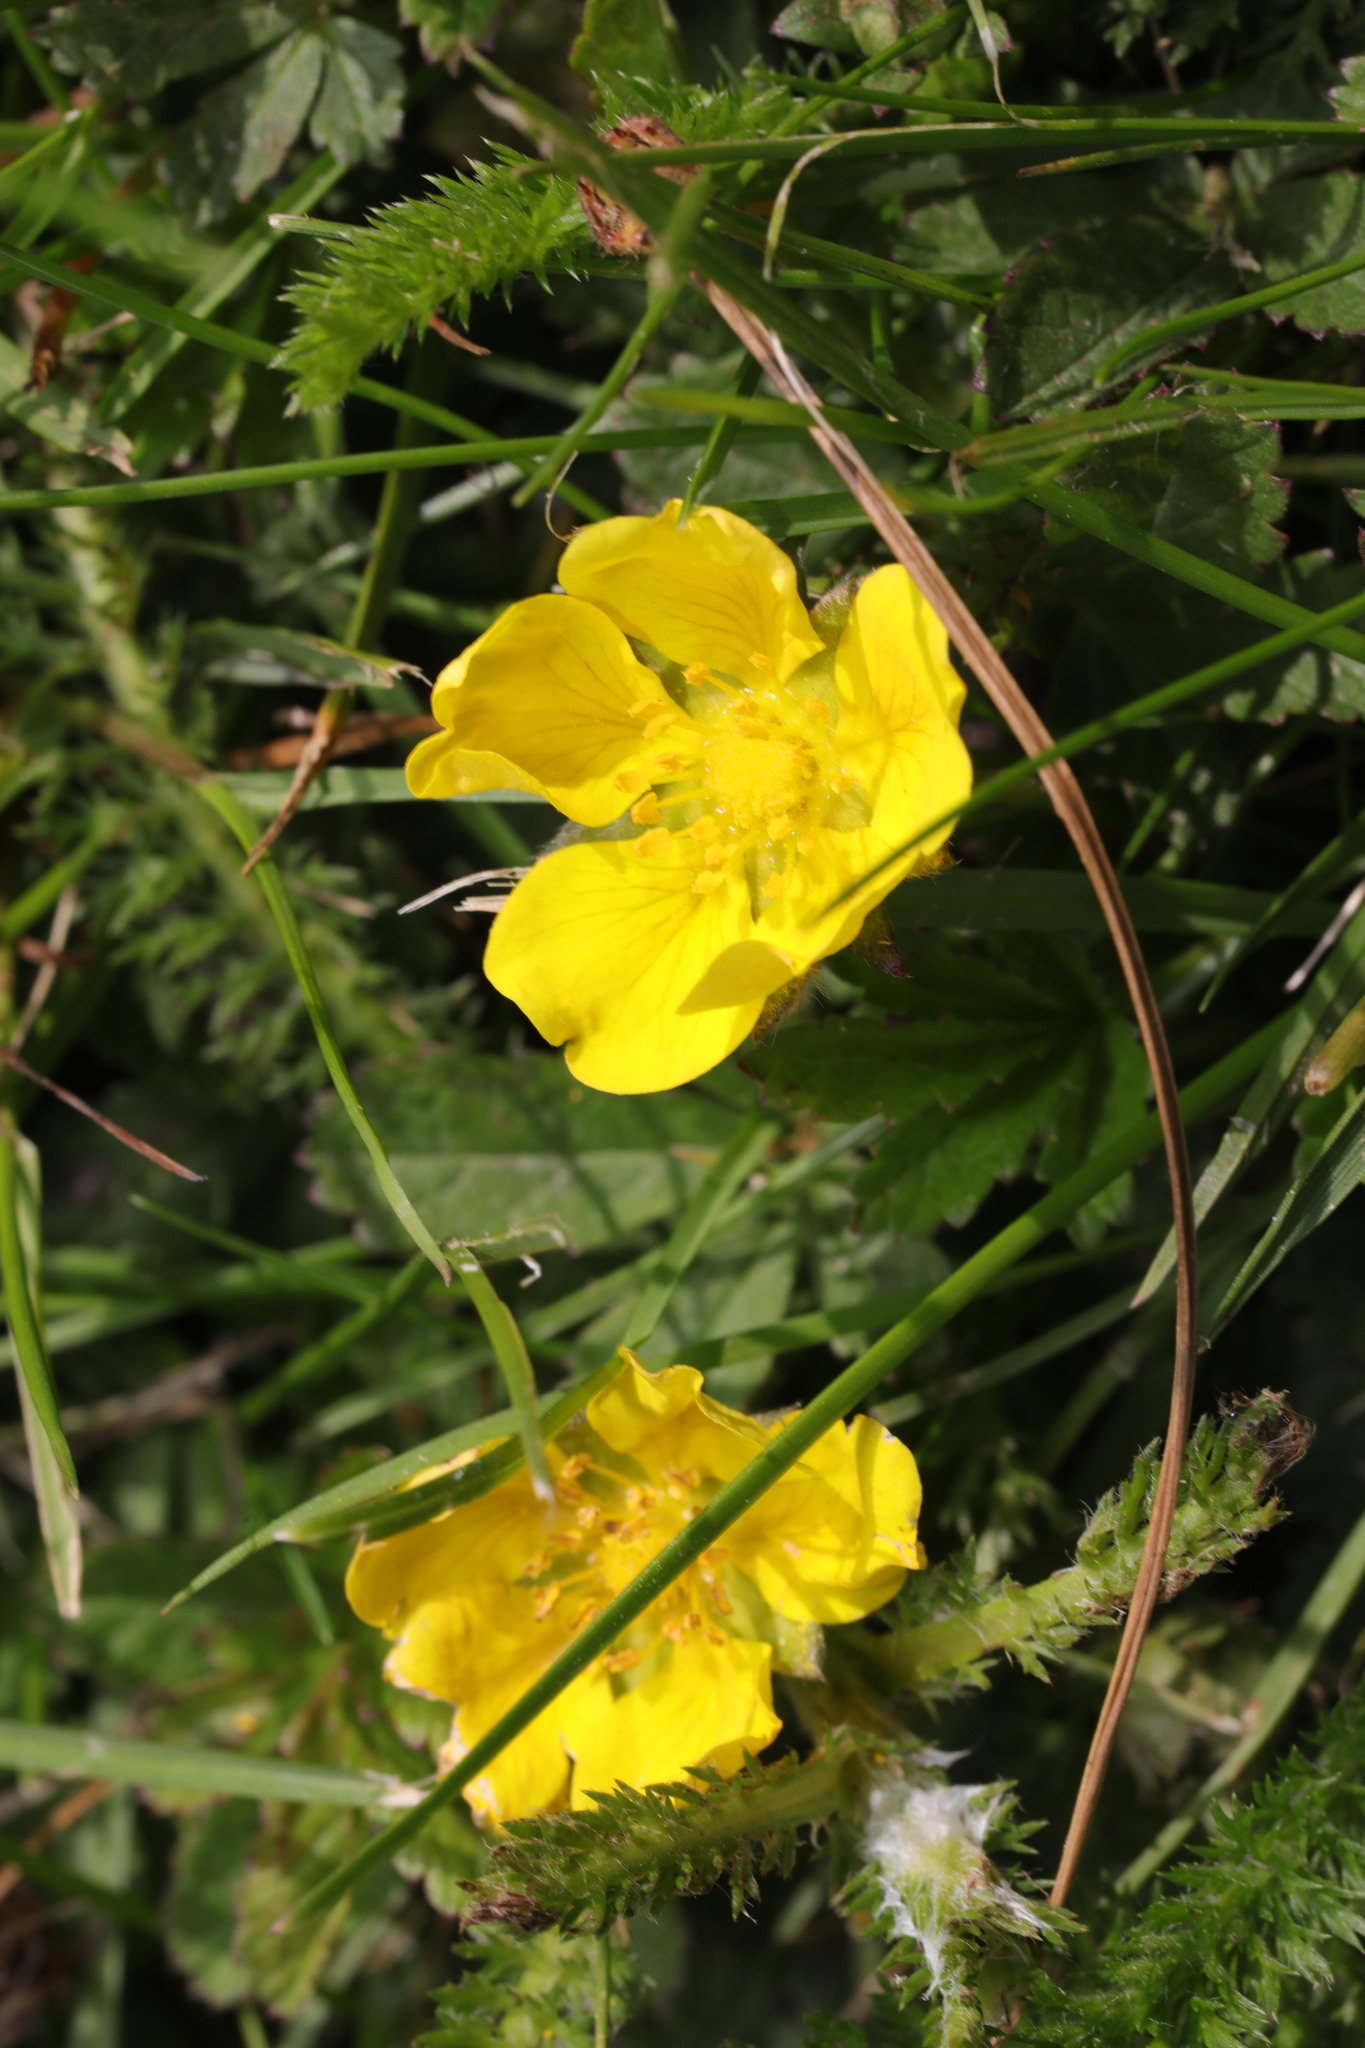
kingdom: Plantae
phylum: Tracheophyta
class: Magnoliopsida
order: Rosales
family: Rosaceae
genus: Potentilla
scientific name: Potentilla reptans
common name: Creeping cinquefoil
